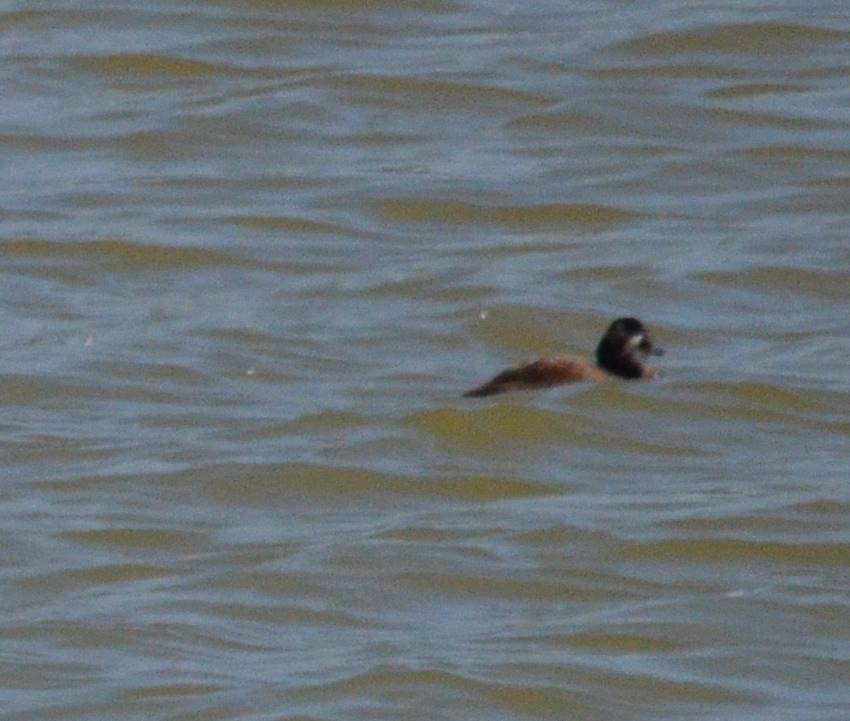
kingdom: Animalia
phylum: Chordata
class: Aves
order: Anseriformes
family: Anatidae
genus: Oxyura
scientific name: Oxyura leucocephala
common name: White-headed duck
